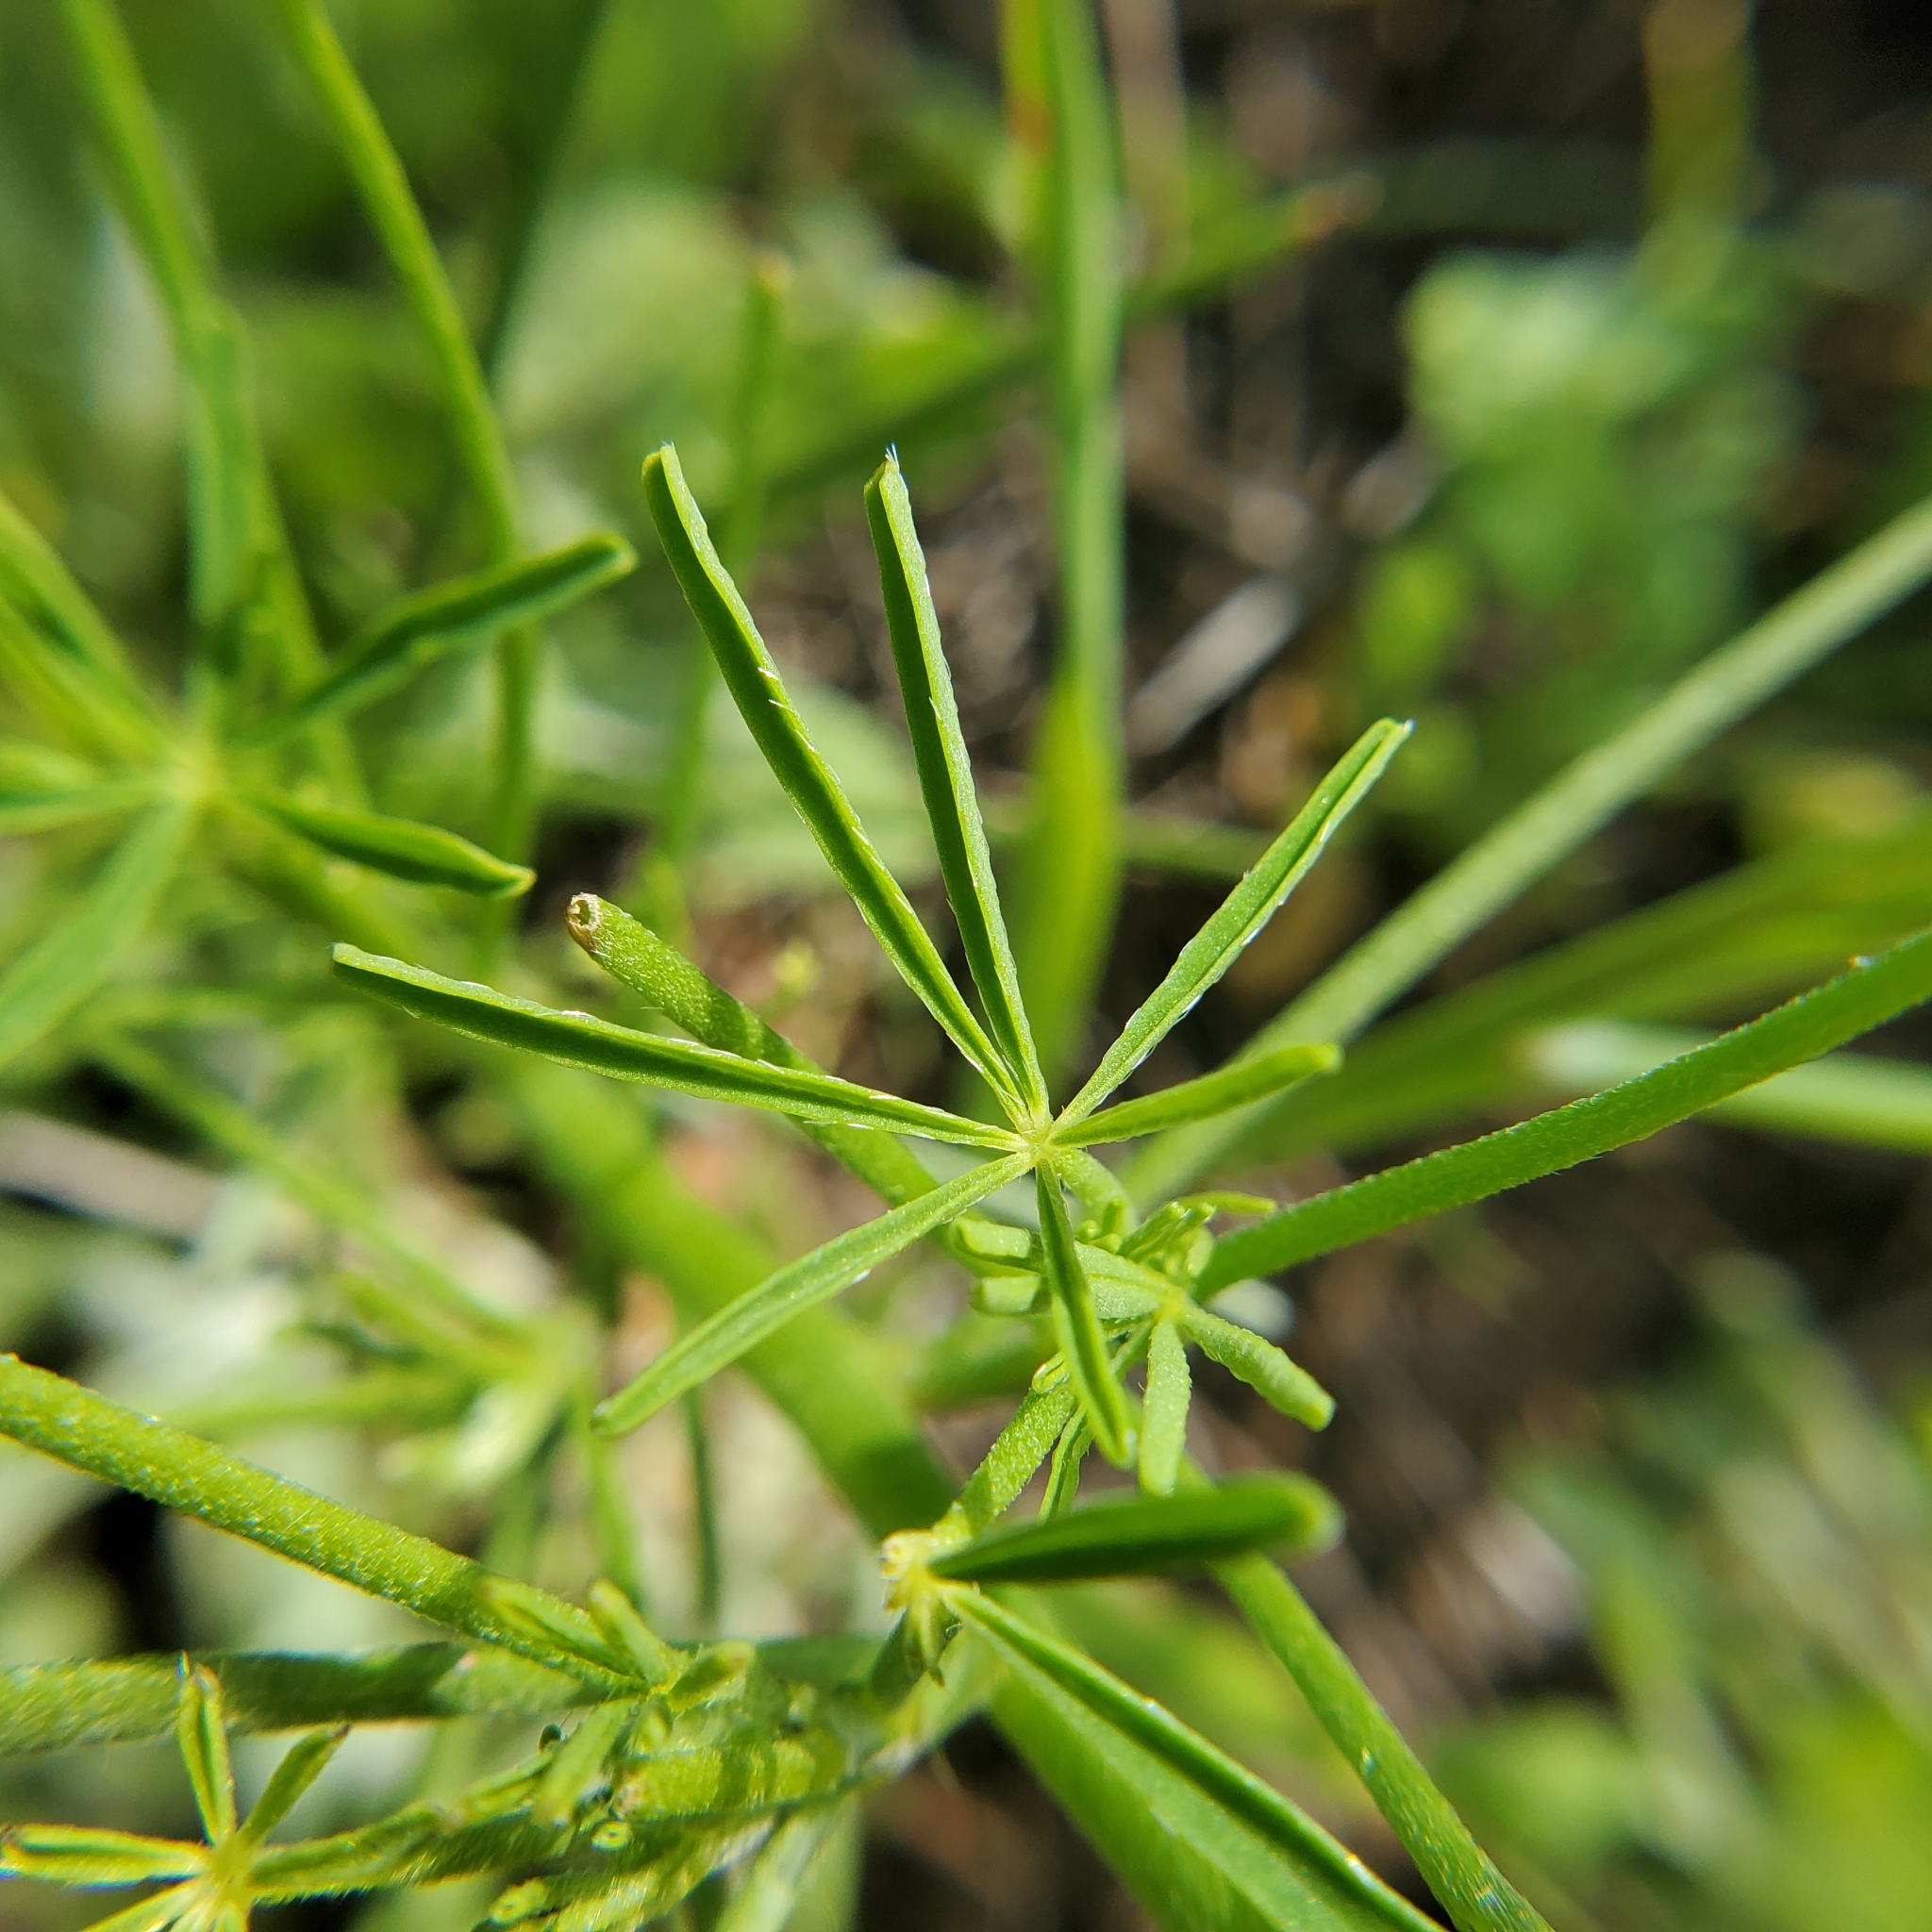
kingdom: Plantae
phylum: Tracheophyta
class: Magnoliopsida
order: Fabales
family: Fabaceae
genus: Lupinus
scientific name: Lupinus truncatus
